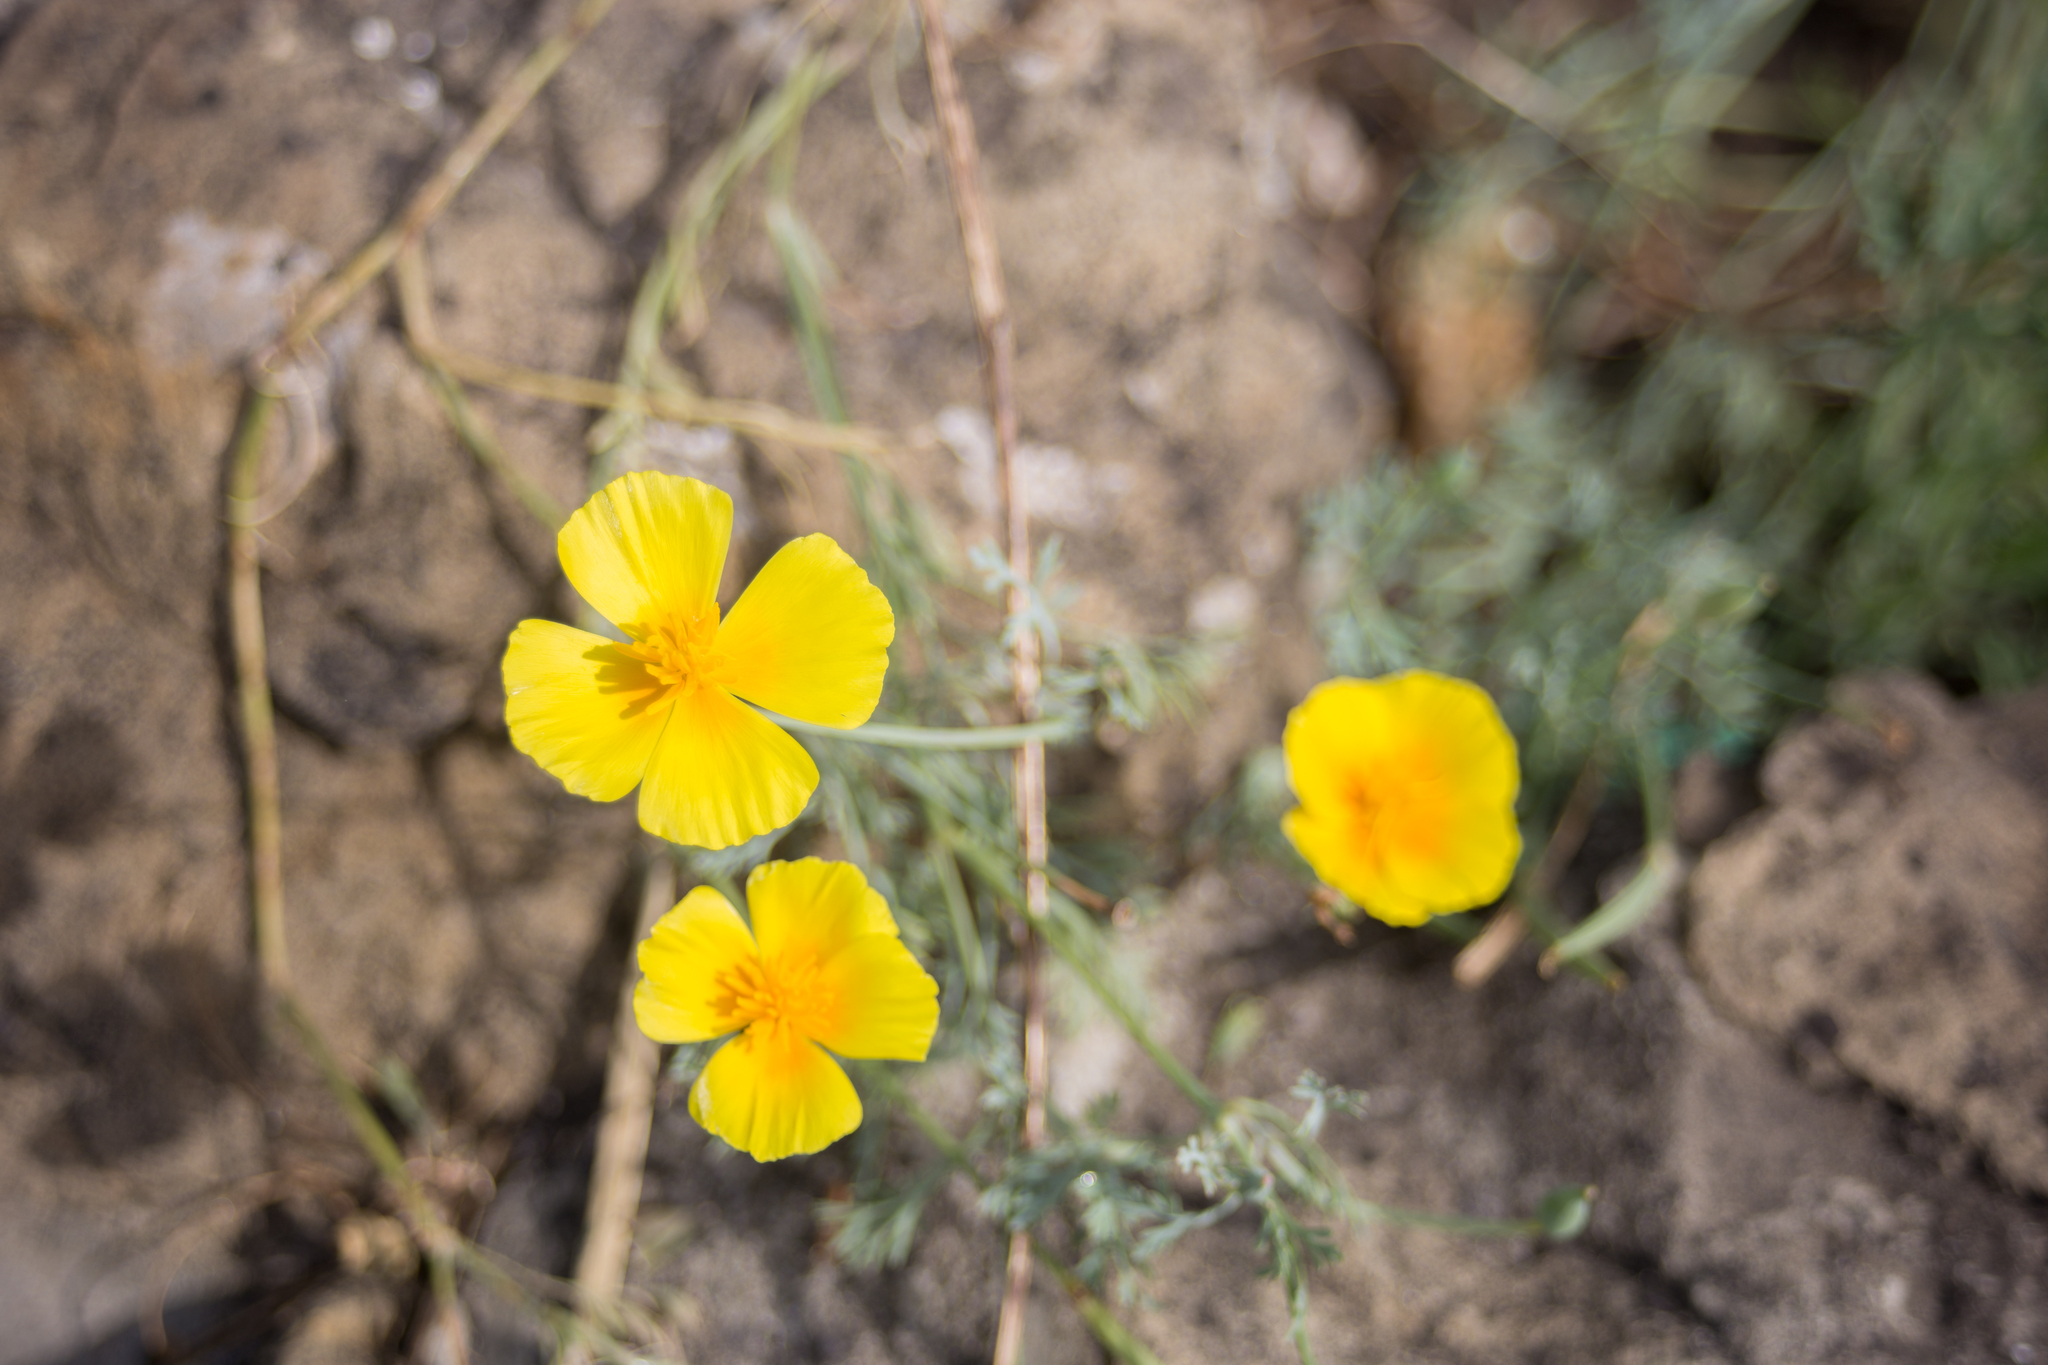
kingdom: Plantae
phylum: Tracheophyta
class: Magnoliopsida
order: Ranunculales
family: Papaveraceae
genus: Eschscholzia
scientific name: Eschscholzia californica
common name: California poppy
